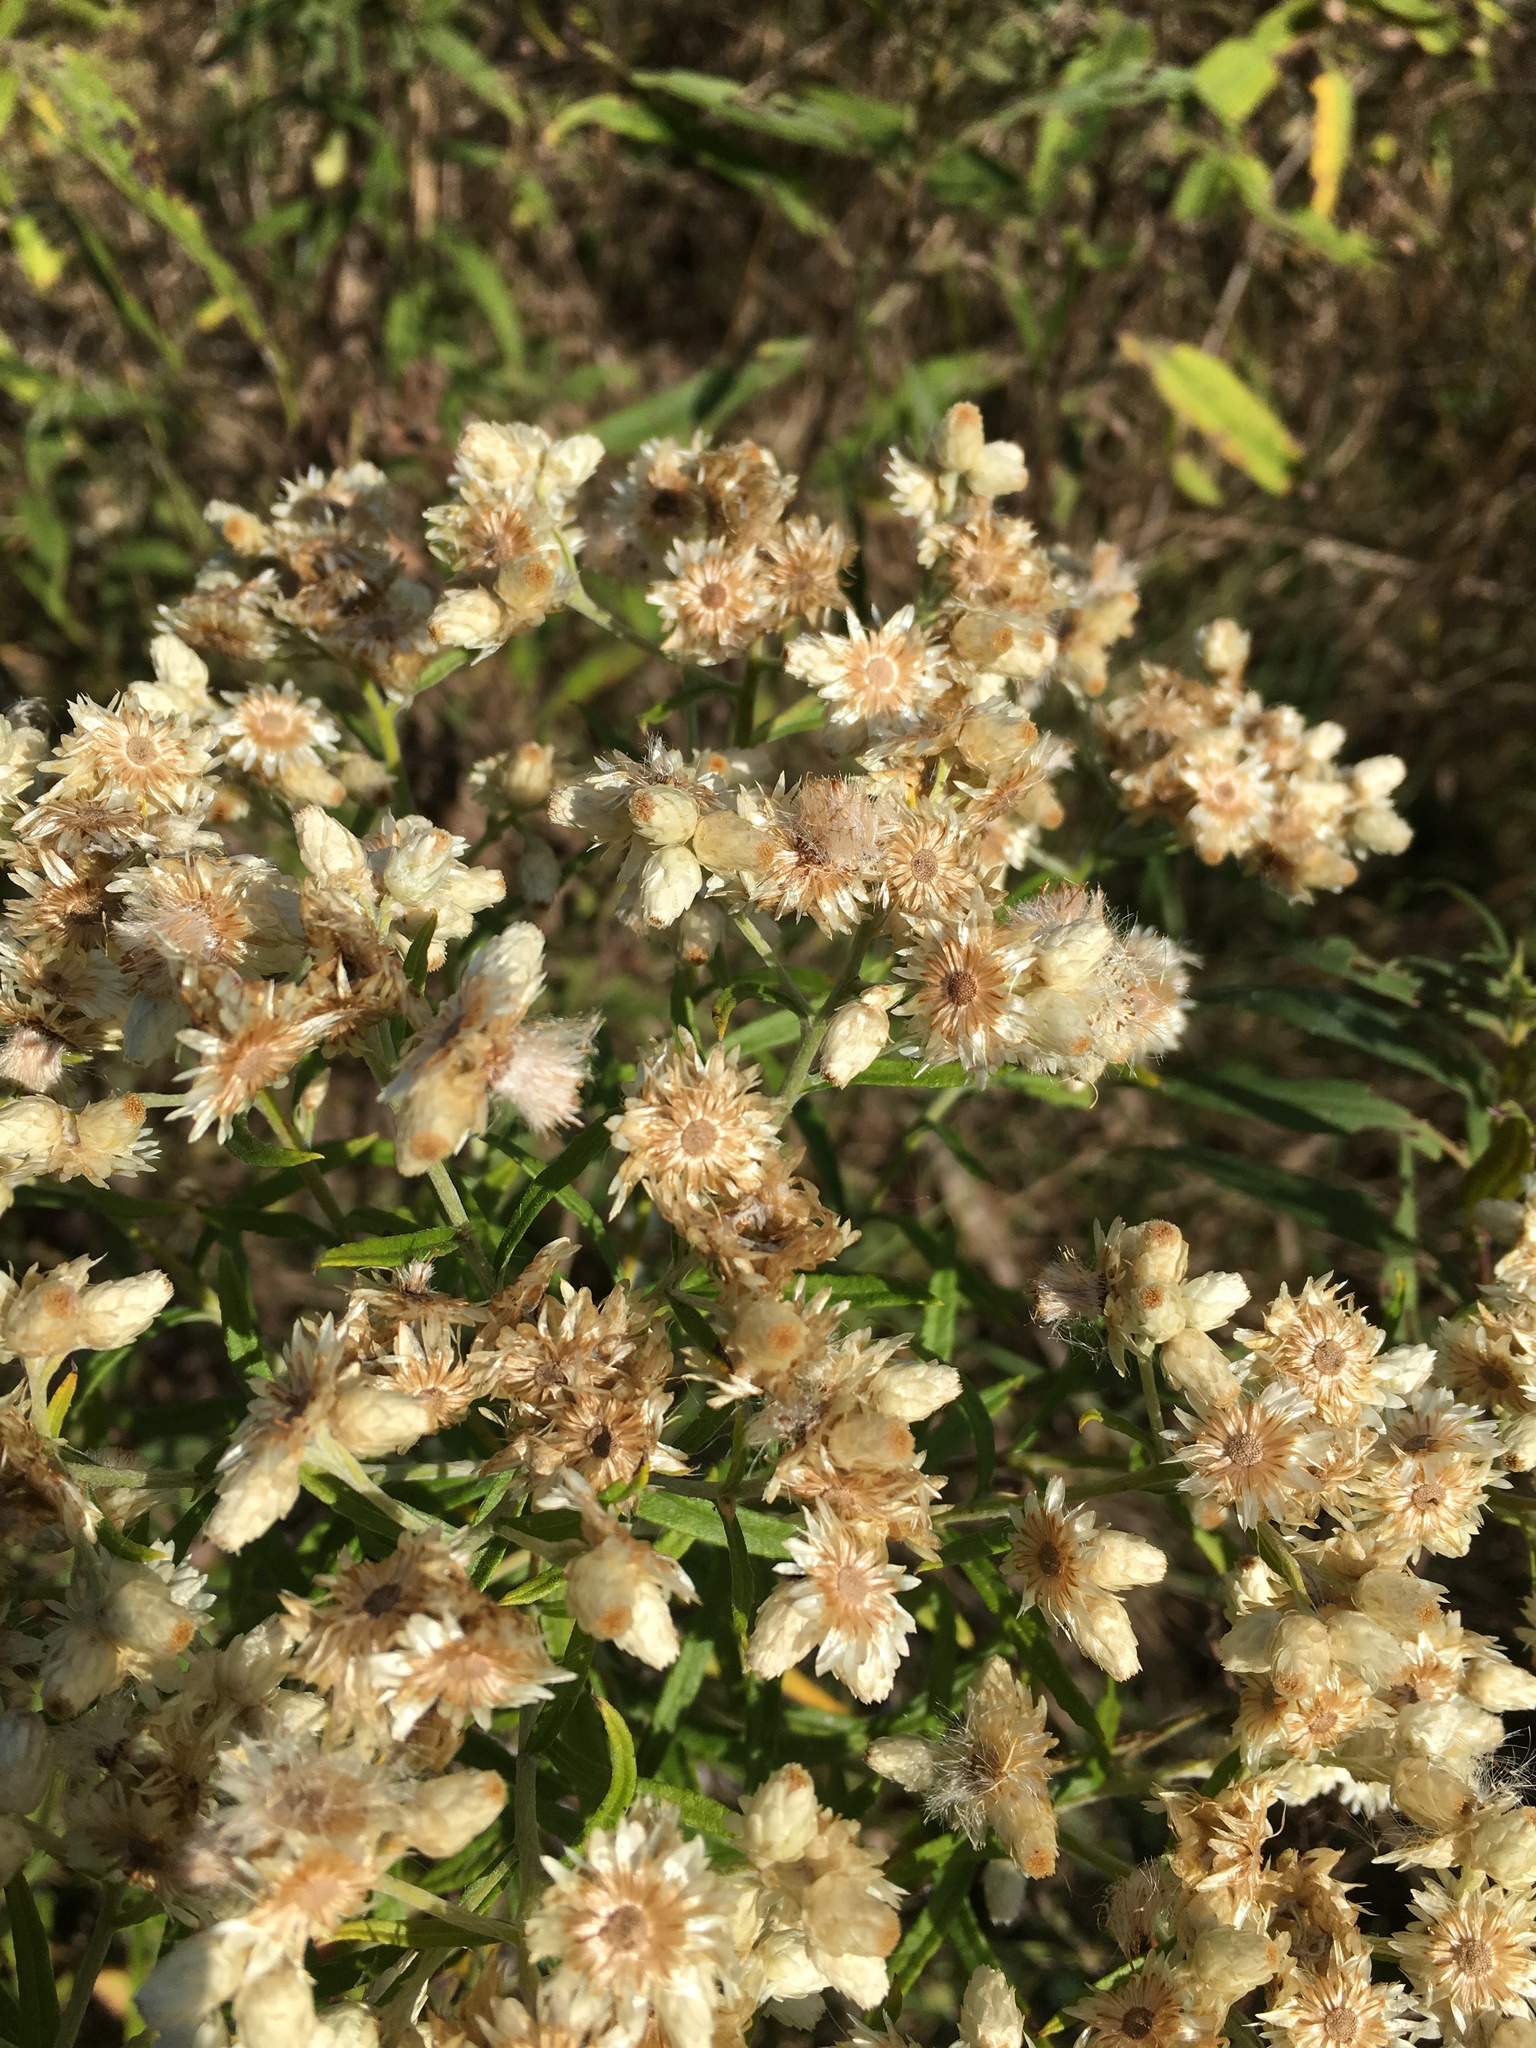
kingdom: Plantae
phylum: Tracheophyta
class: Magnoliopsida
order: Asterales
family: Asteraceae
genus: Pseudognaphalium
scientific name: Pseudognaphalium obtusifolium
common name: Eastern rabbit-tobacco
